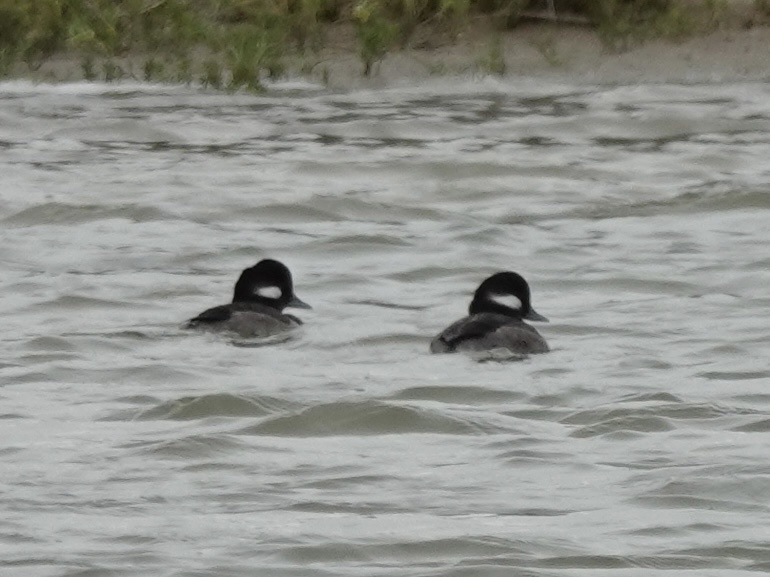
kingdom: Animalia
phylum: Chordata
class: Aves
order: Anseriformes
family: Anatidae
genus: Bucephala
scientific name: Bucephala albeola
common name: Bufflehead
